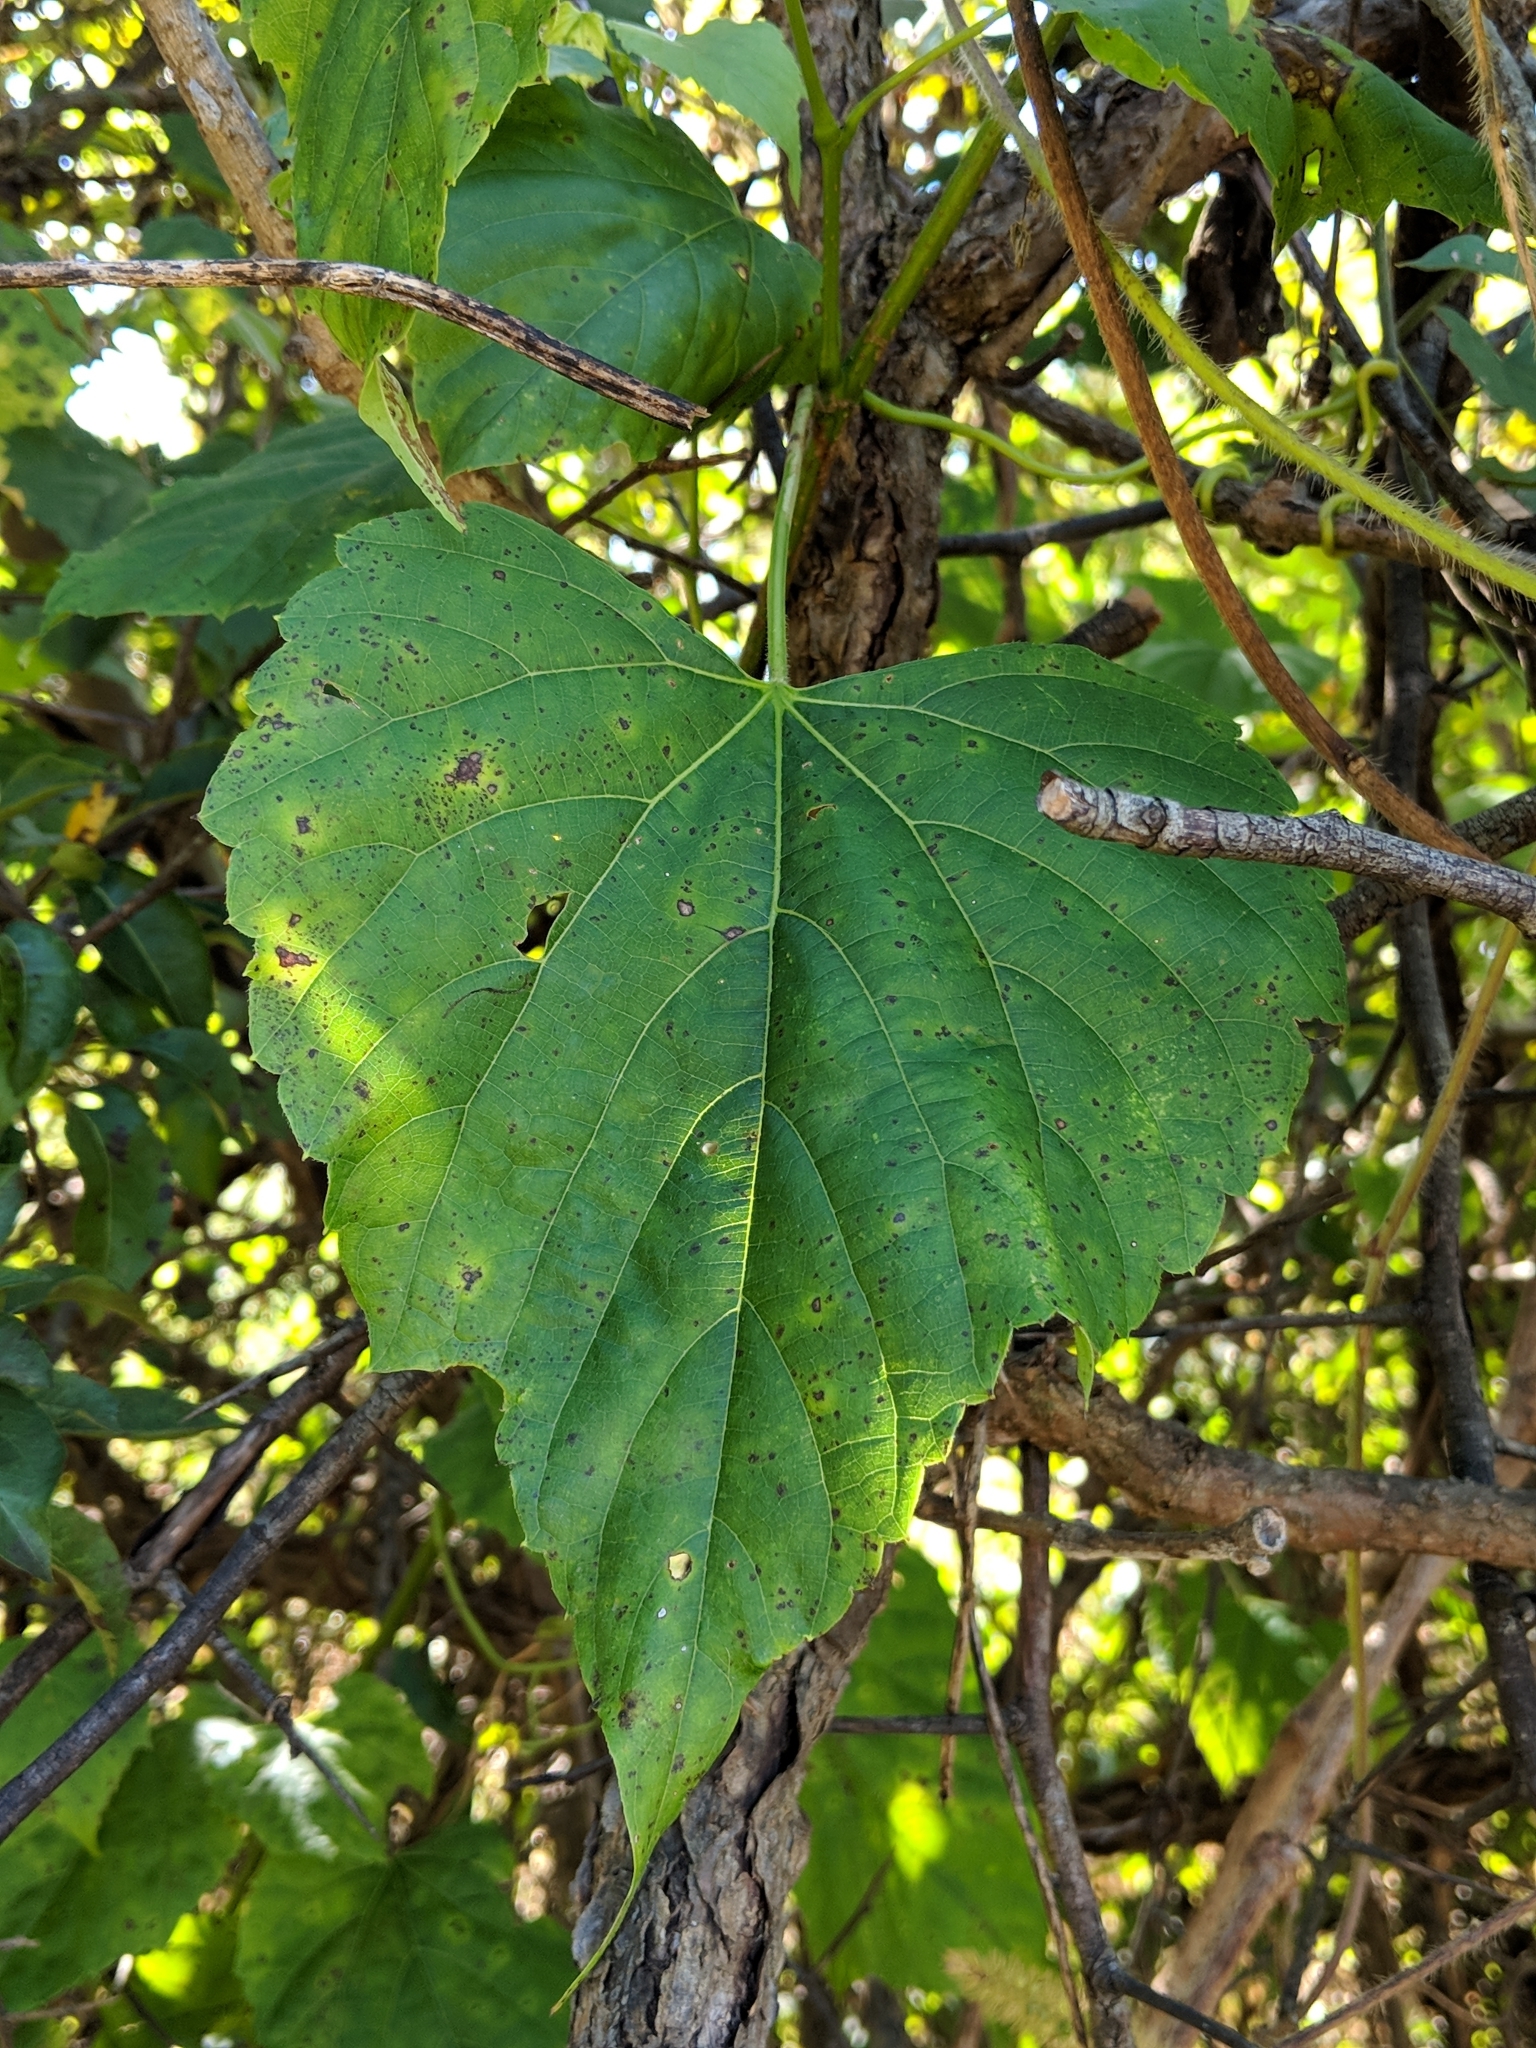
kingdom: Plantae
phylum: Tracheophyta
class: Magnoliopsida
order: Vitales
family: Vitaceae
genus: Ampelopsis
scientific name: Ampelopsis glandulosa
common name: Amur peppervine
